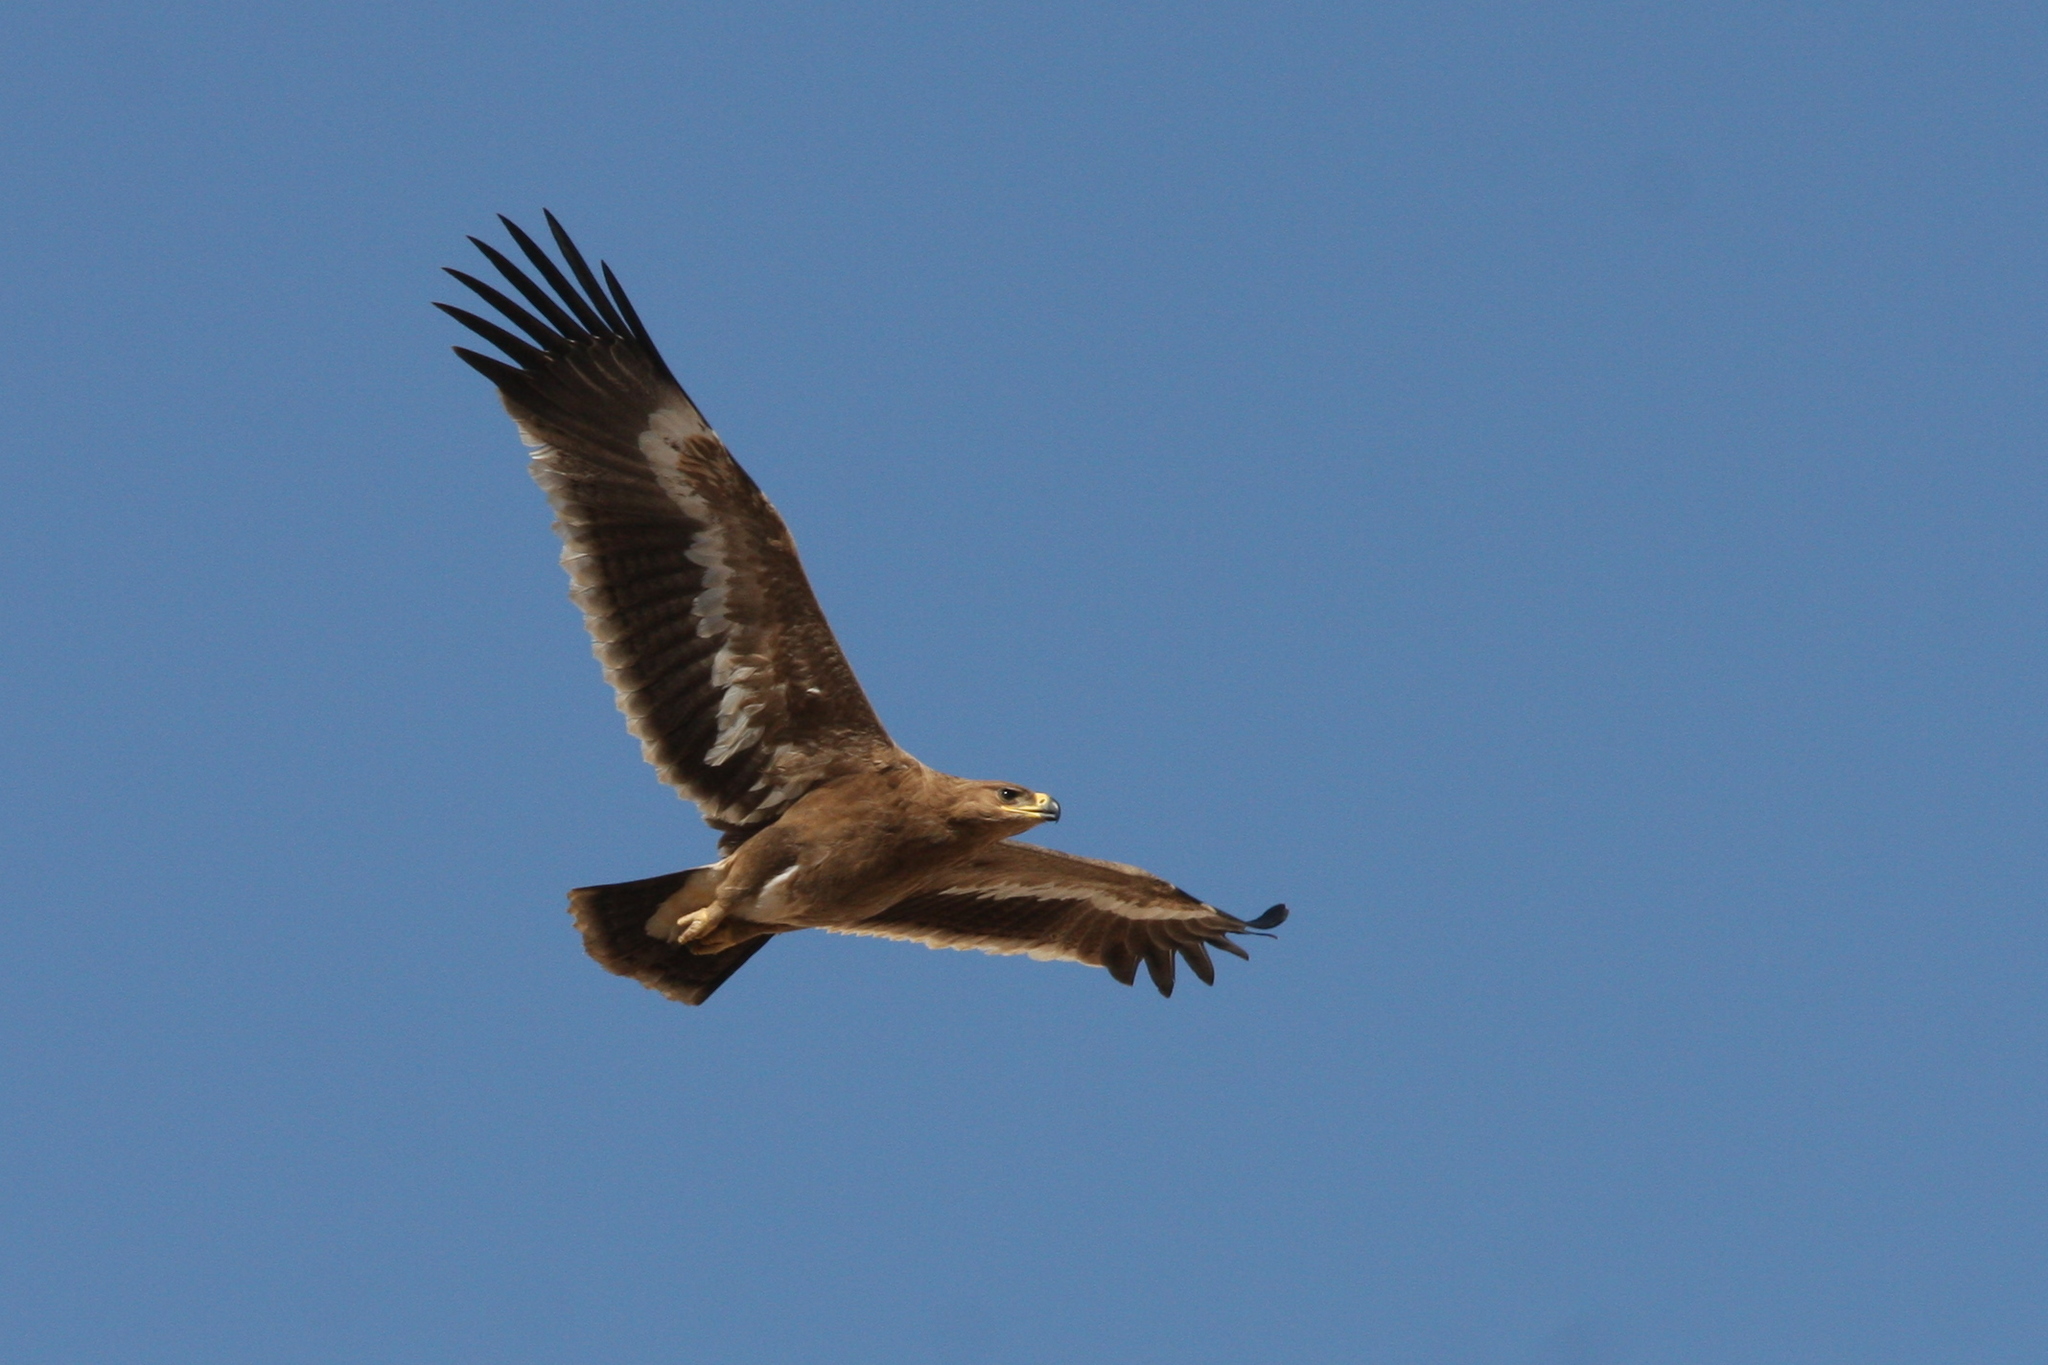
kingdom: Animalia
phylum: Chordata
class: Aves
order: Accipitriformes
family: Accipitridae
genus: Aquila
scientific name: Aquila nipalensis
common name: Steppe eagle
